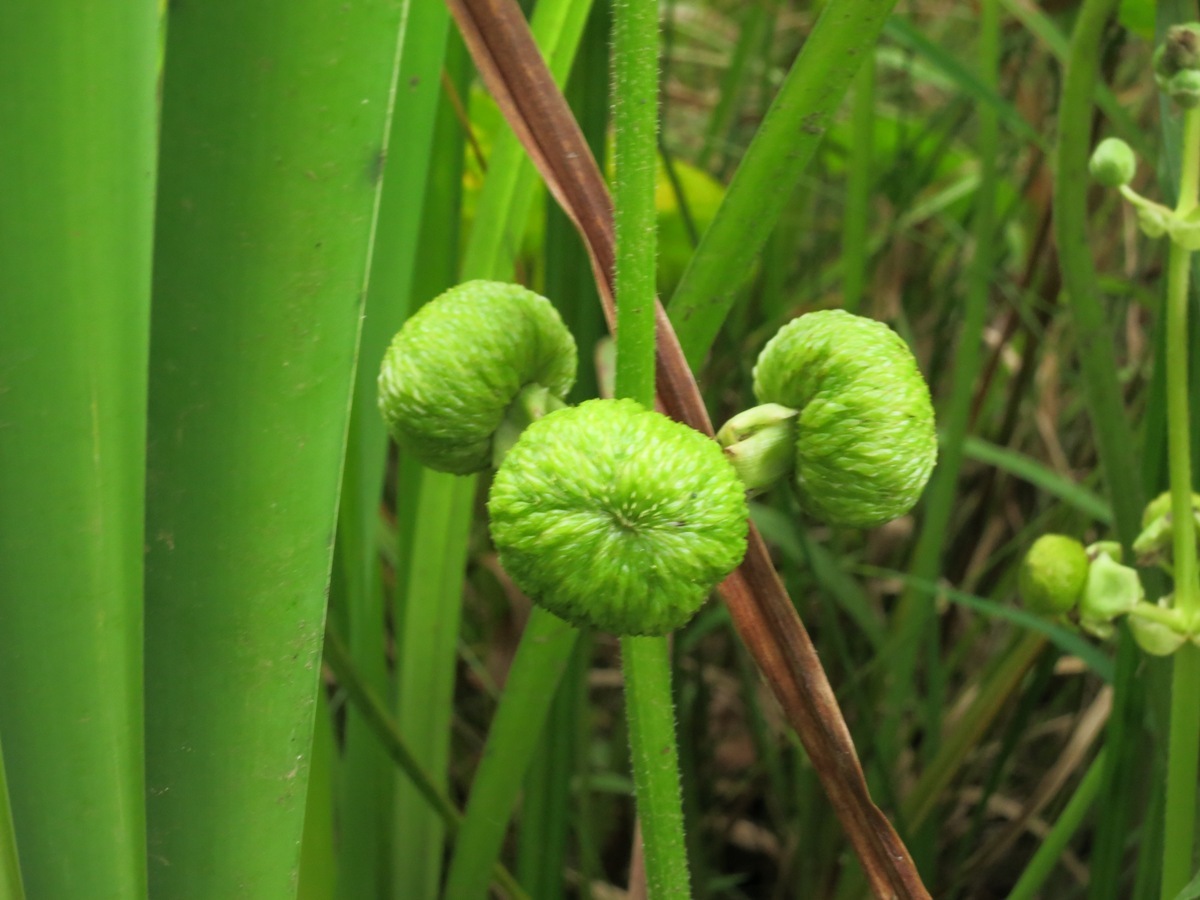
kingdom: Plantae
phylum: Tracheophyta
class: Liliopsida
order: Alismatales
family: Alismataceae
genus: Sagittaria
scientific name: Sagittaria latifolia
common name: Duck-potato
